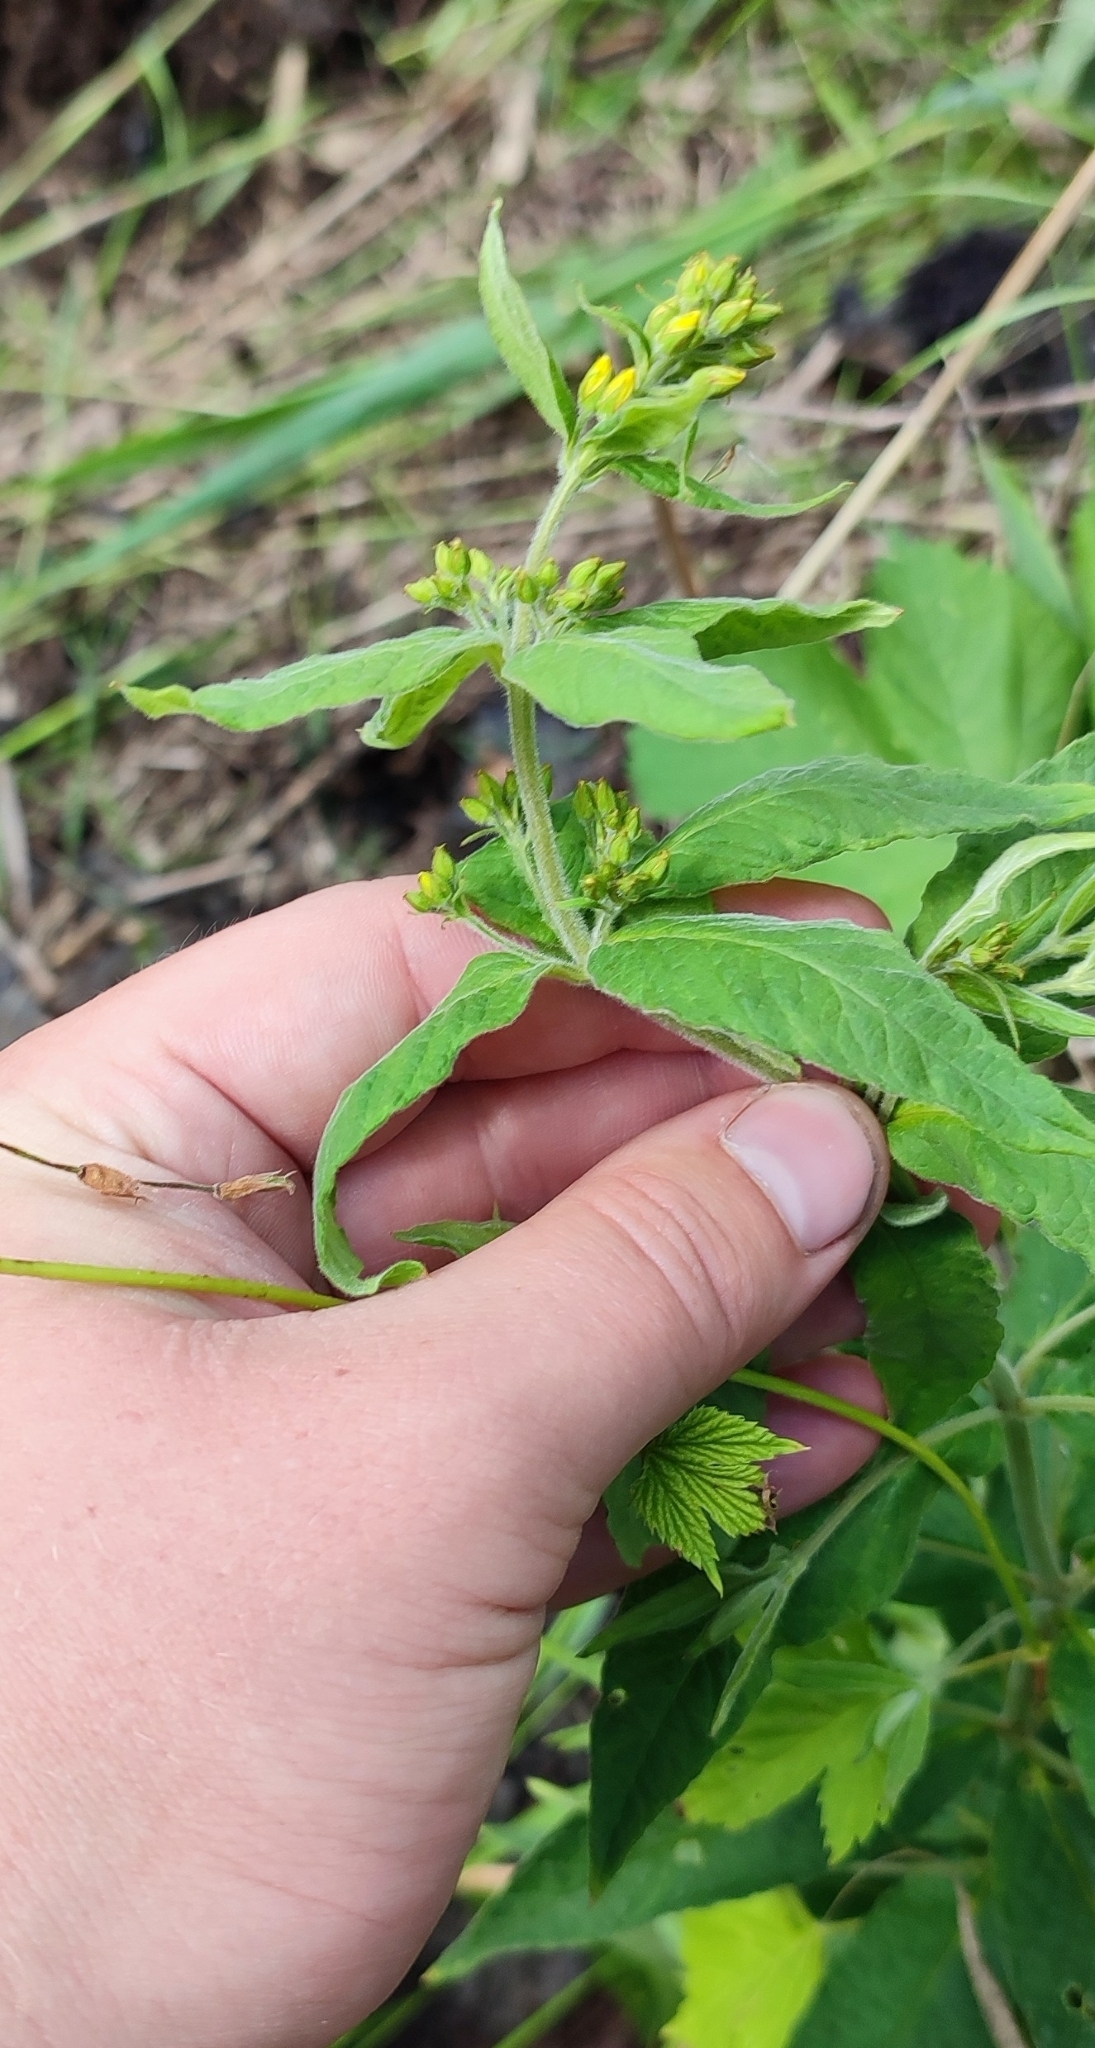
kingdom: Plantae
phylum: Tracheophyta
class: Magnoliopsida
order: Ericales
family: Primulaceae
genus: Lysimachia
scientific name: Lysimachia vulgaris
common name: Yellow loosestrife
